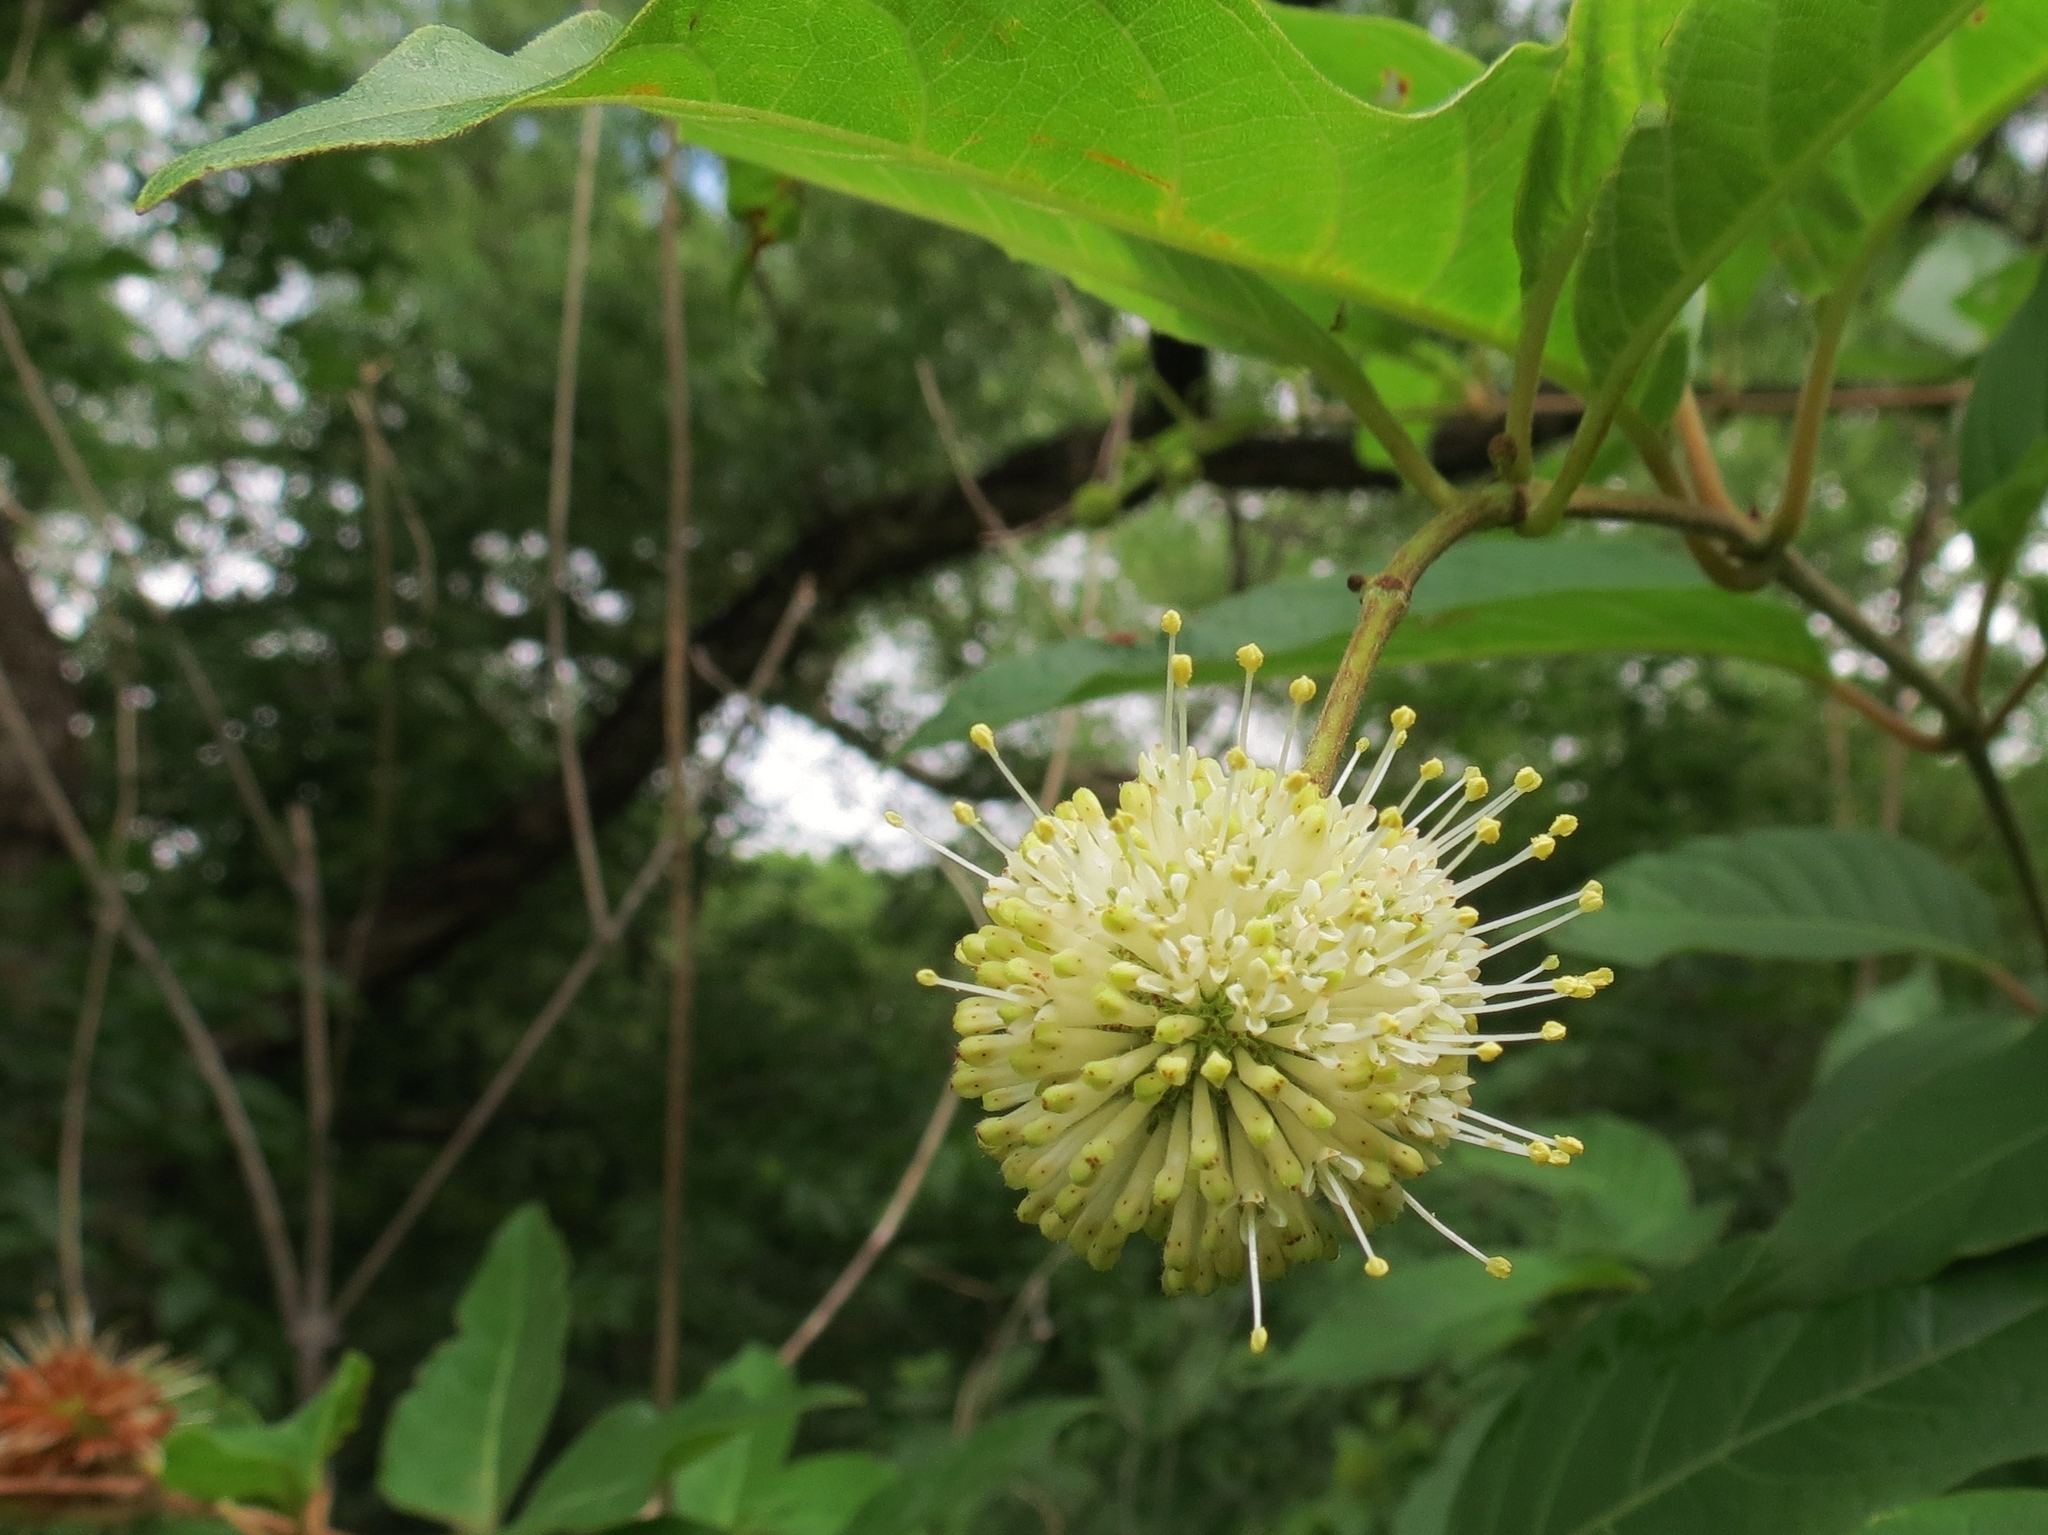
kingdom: Plantae
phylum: Tracheophyta
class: Magnoliopsida
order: Gentianales
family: Rubiaceae
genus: Cephalanthus
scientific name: Cephalanthus occidentalis
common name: Button-willow
